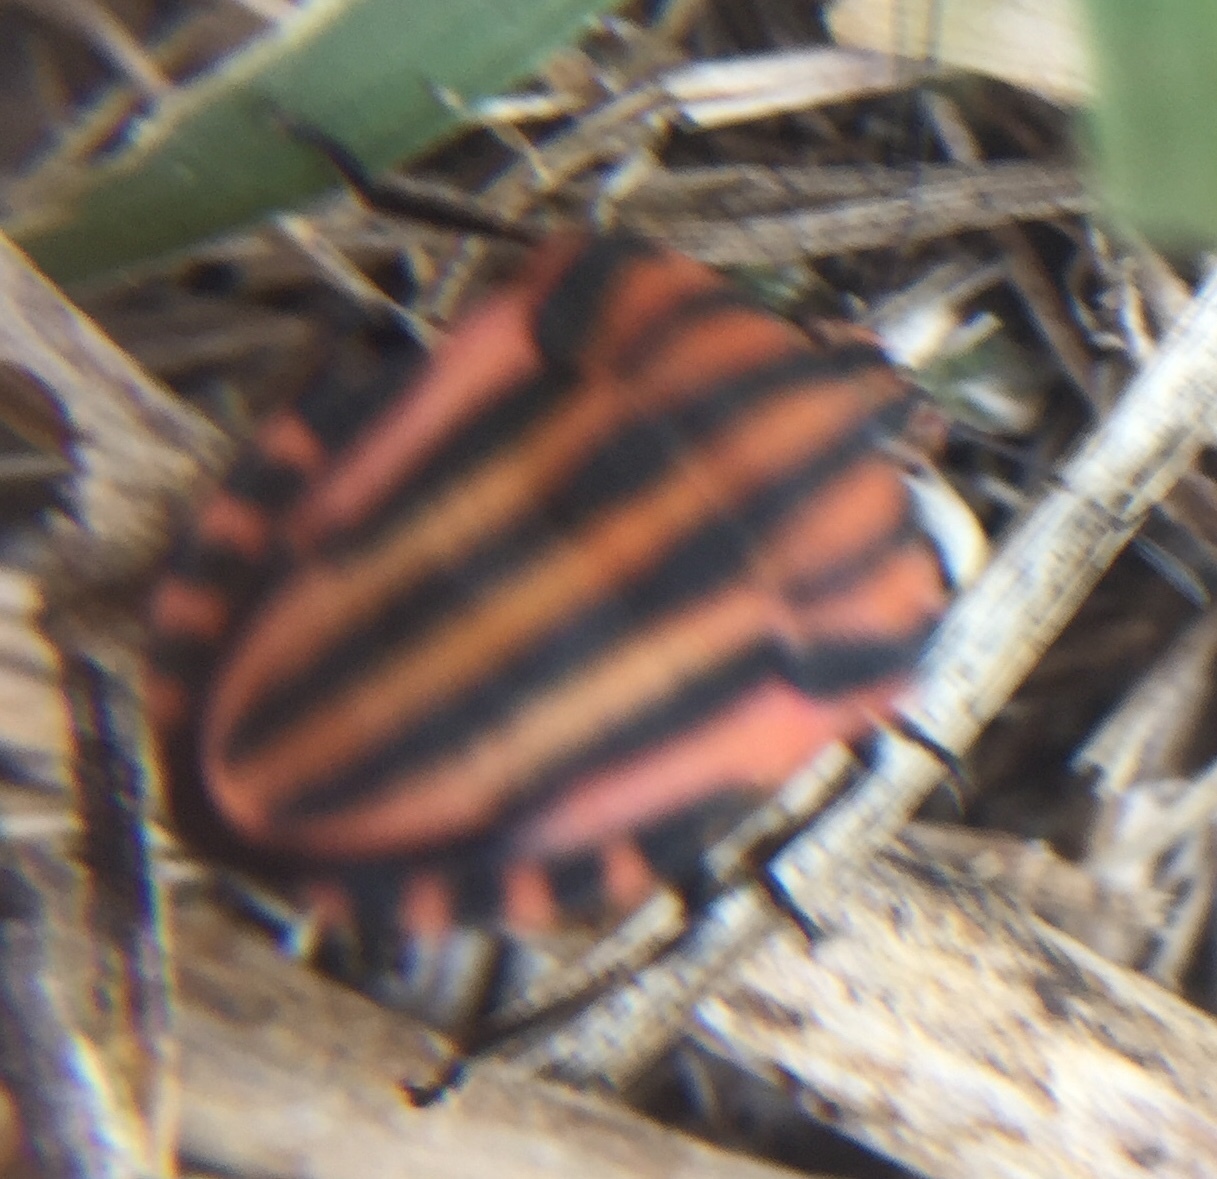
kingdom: Animalia
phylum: Arthropoda
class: Insecta
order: Hemiptera
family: Pentatomidae
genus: Graphosoma
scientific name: Graphosoma italicum
